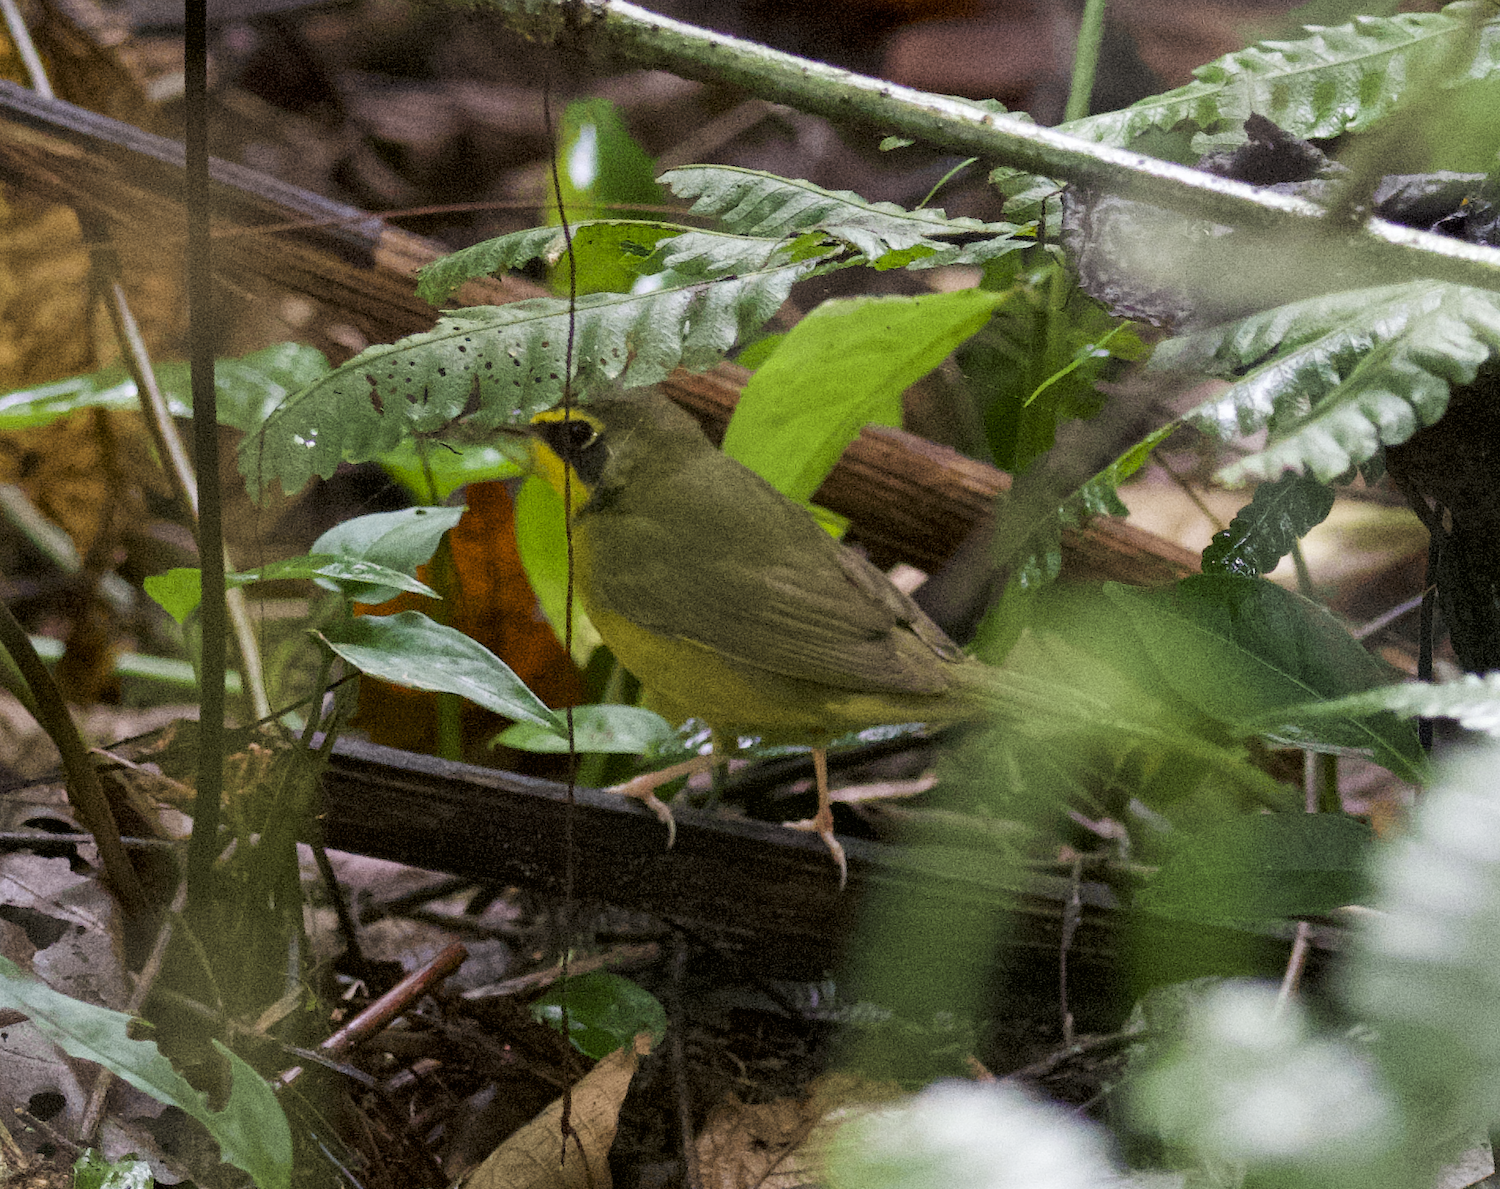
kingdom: Animalia
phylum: Chordata
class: Aves
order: Passeriformes
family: Parulidae
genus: Geothlypis
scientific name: Geothlypis formosa
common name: Kentucky warbler
